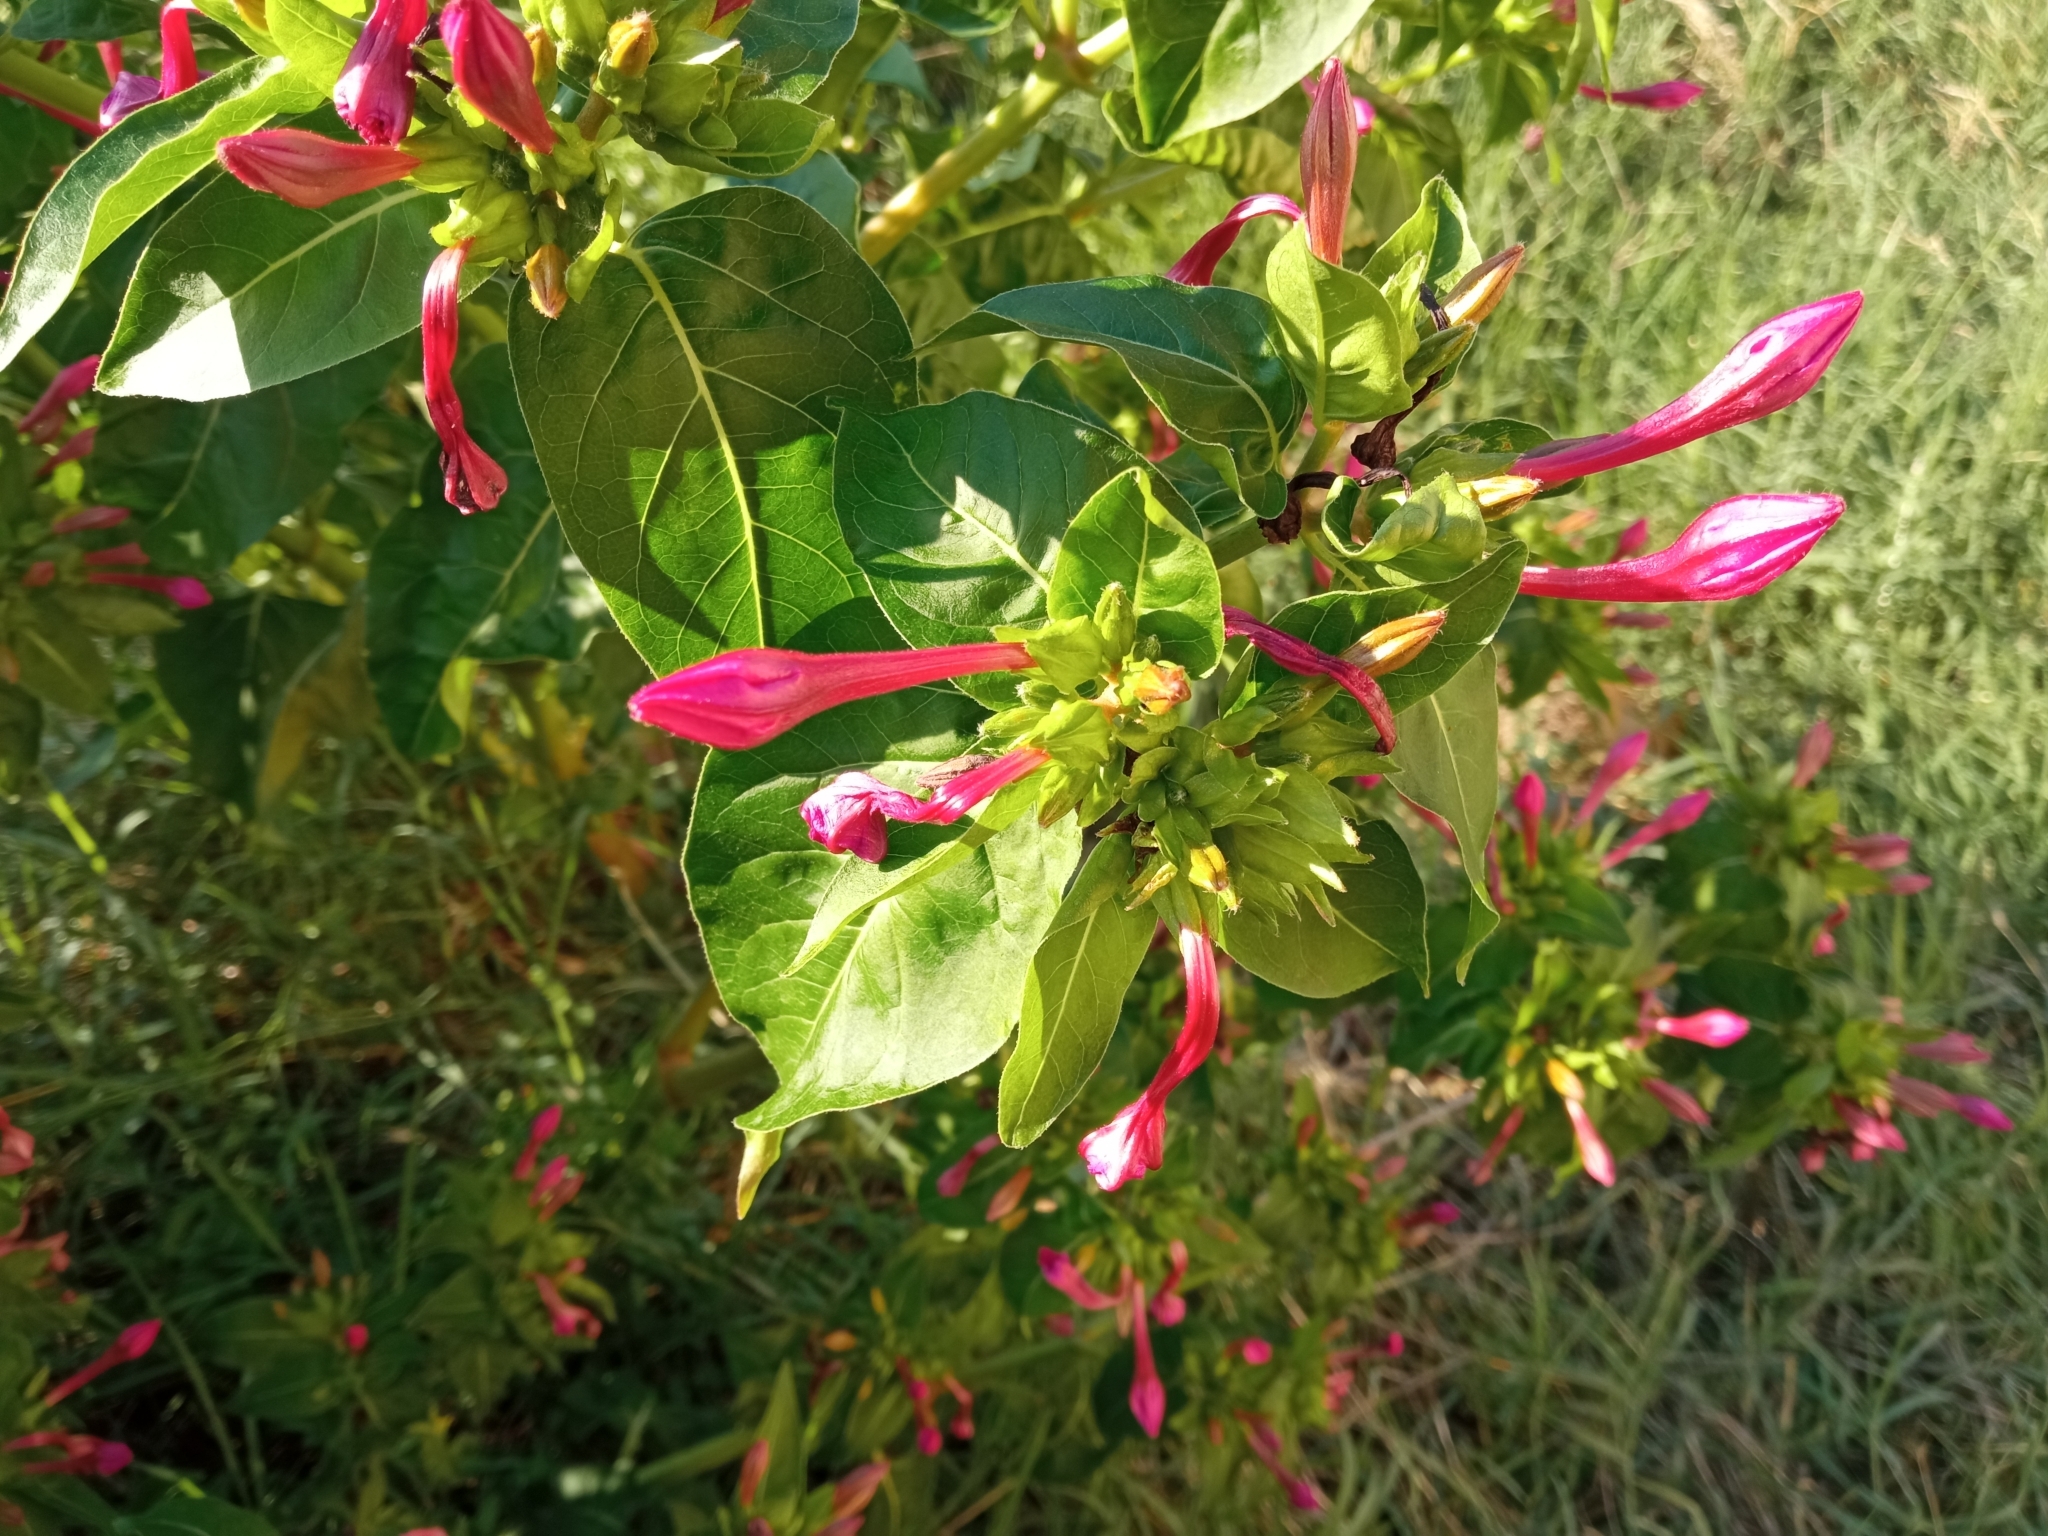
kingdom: Plantae
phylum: Tracheophyta
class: Magnoliopsida
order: Caryophyllales
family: Nyctaginaceae
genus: Mirabilis
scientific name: Mirabilis jalapa
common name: Marvel-of-peru
